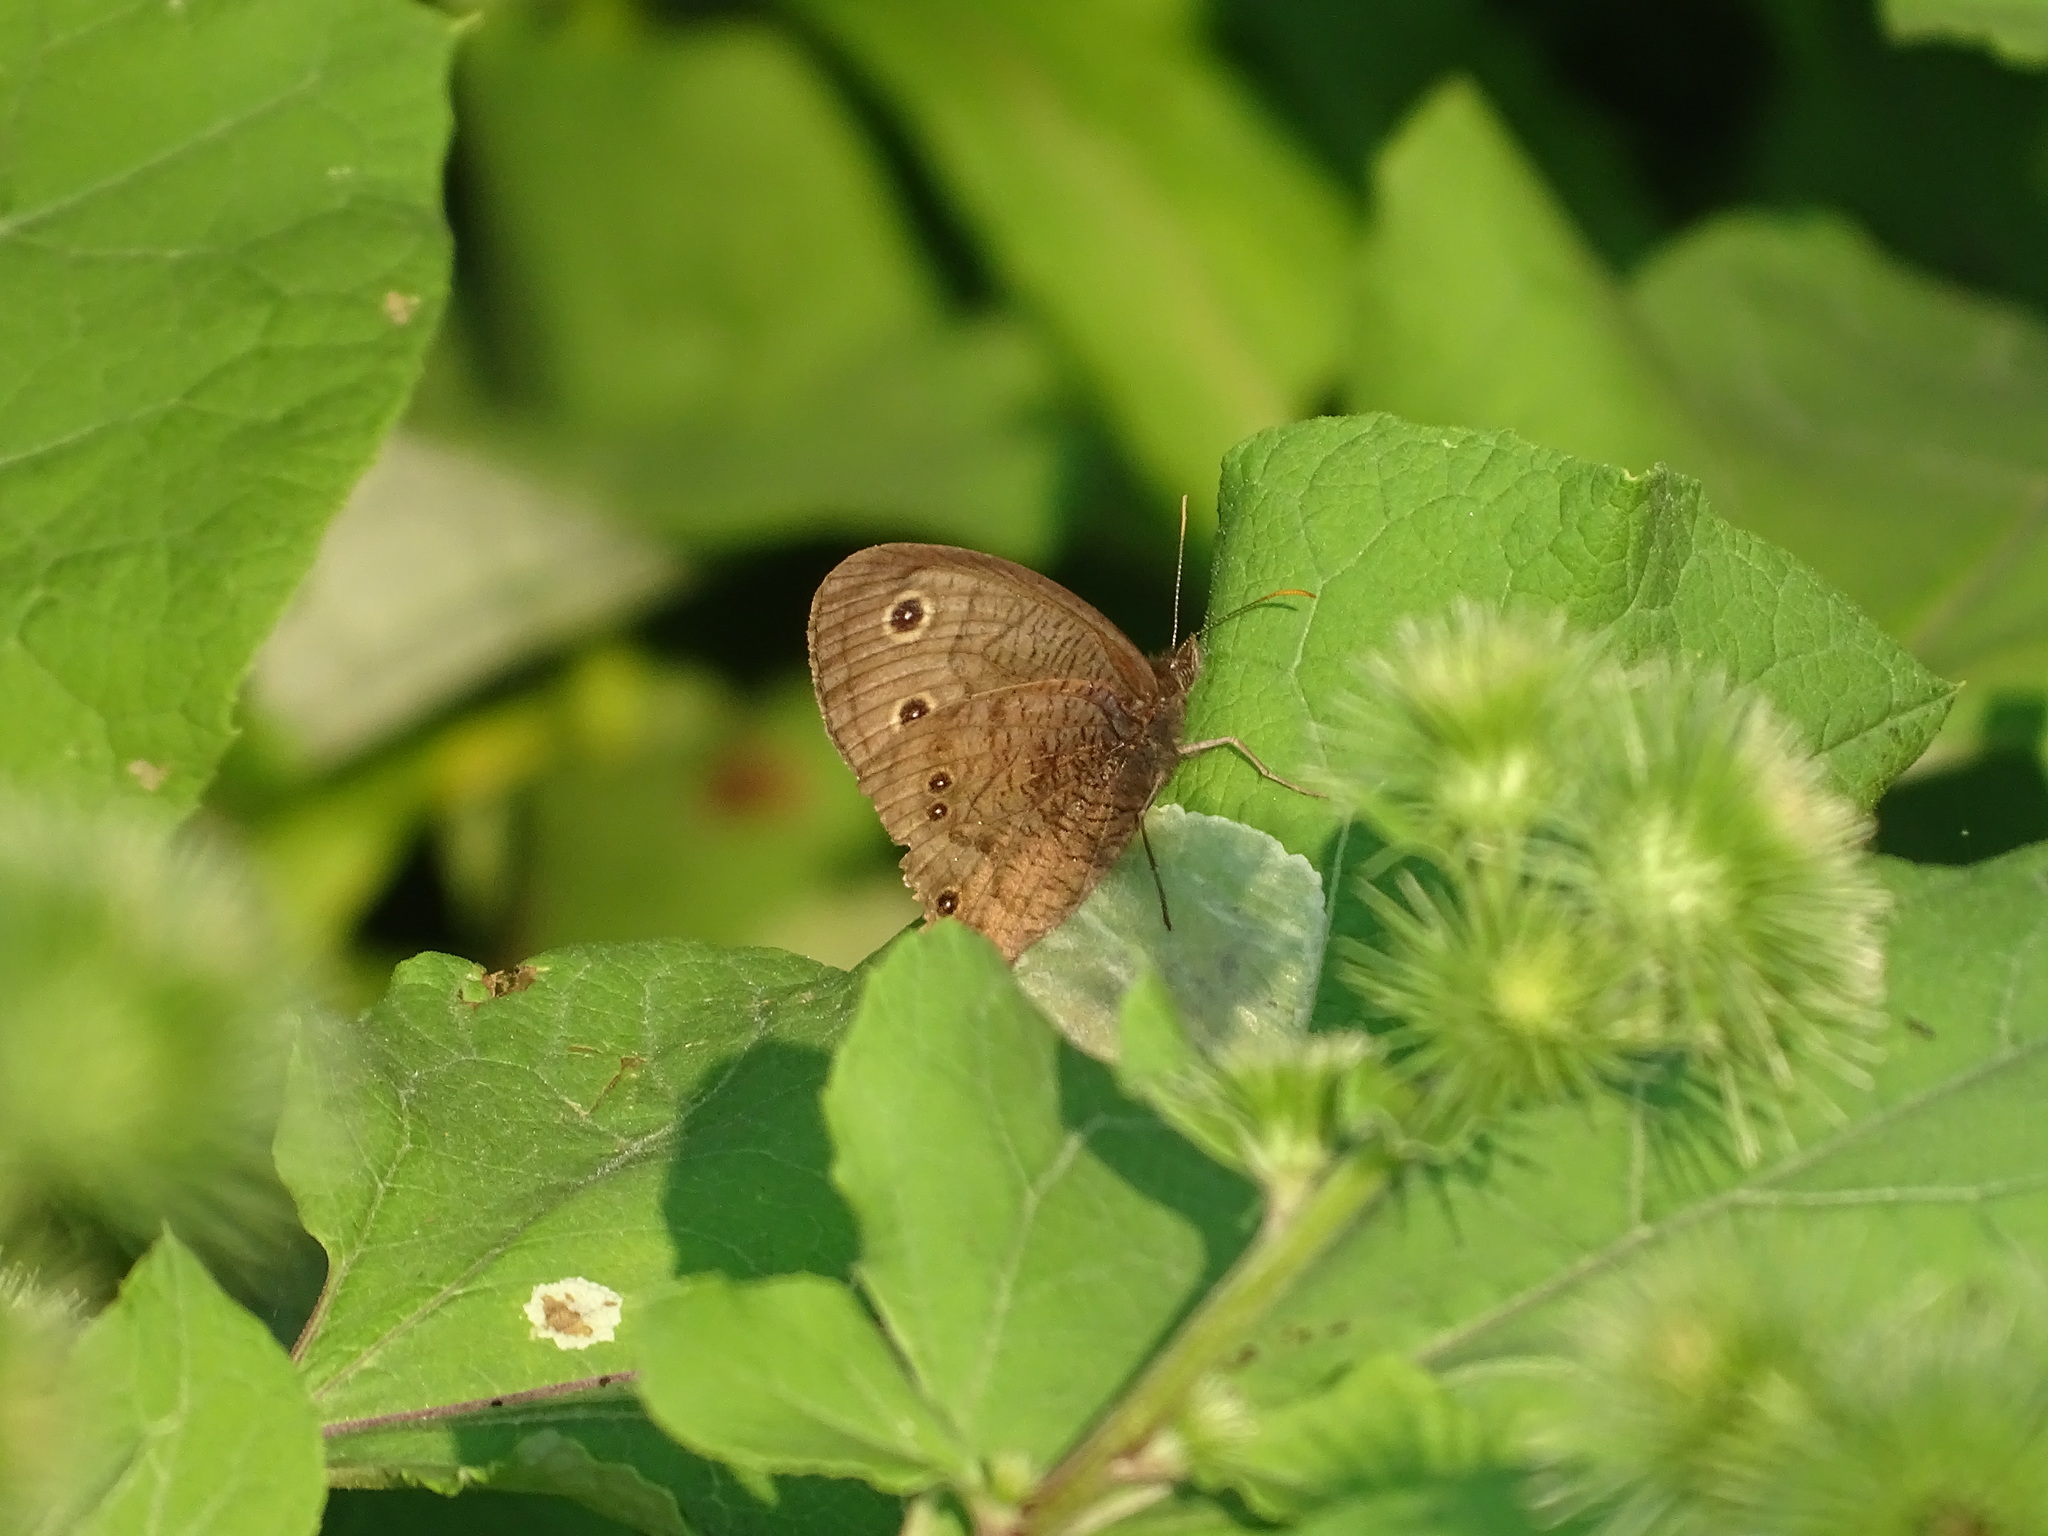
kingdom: Animalia
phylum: Arthropoda
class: Insecta
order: Lepidoptera
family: Nymphalidae
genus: Cercyonis
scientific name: Cercyonis pegala
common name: Common wood-nymph
